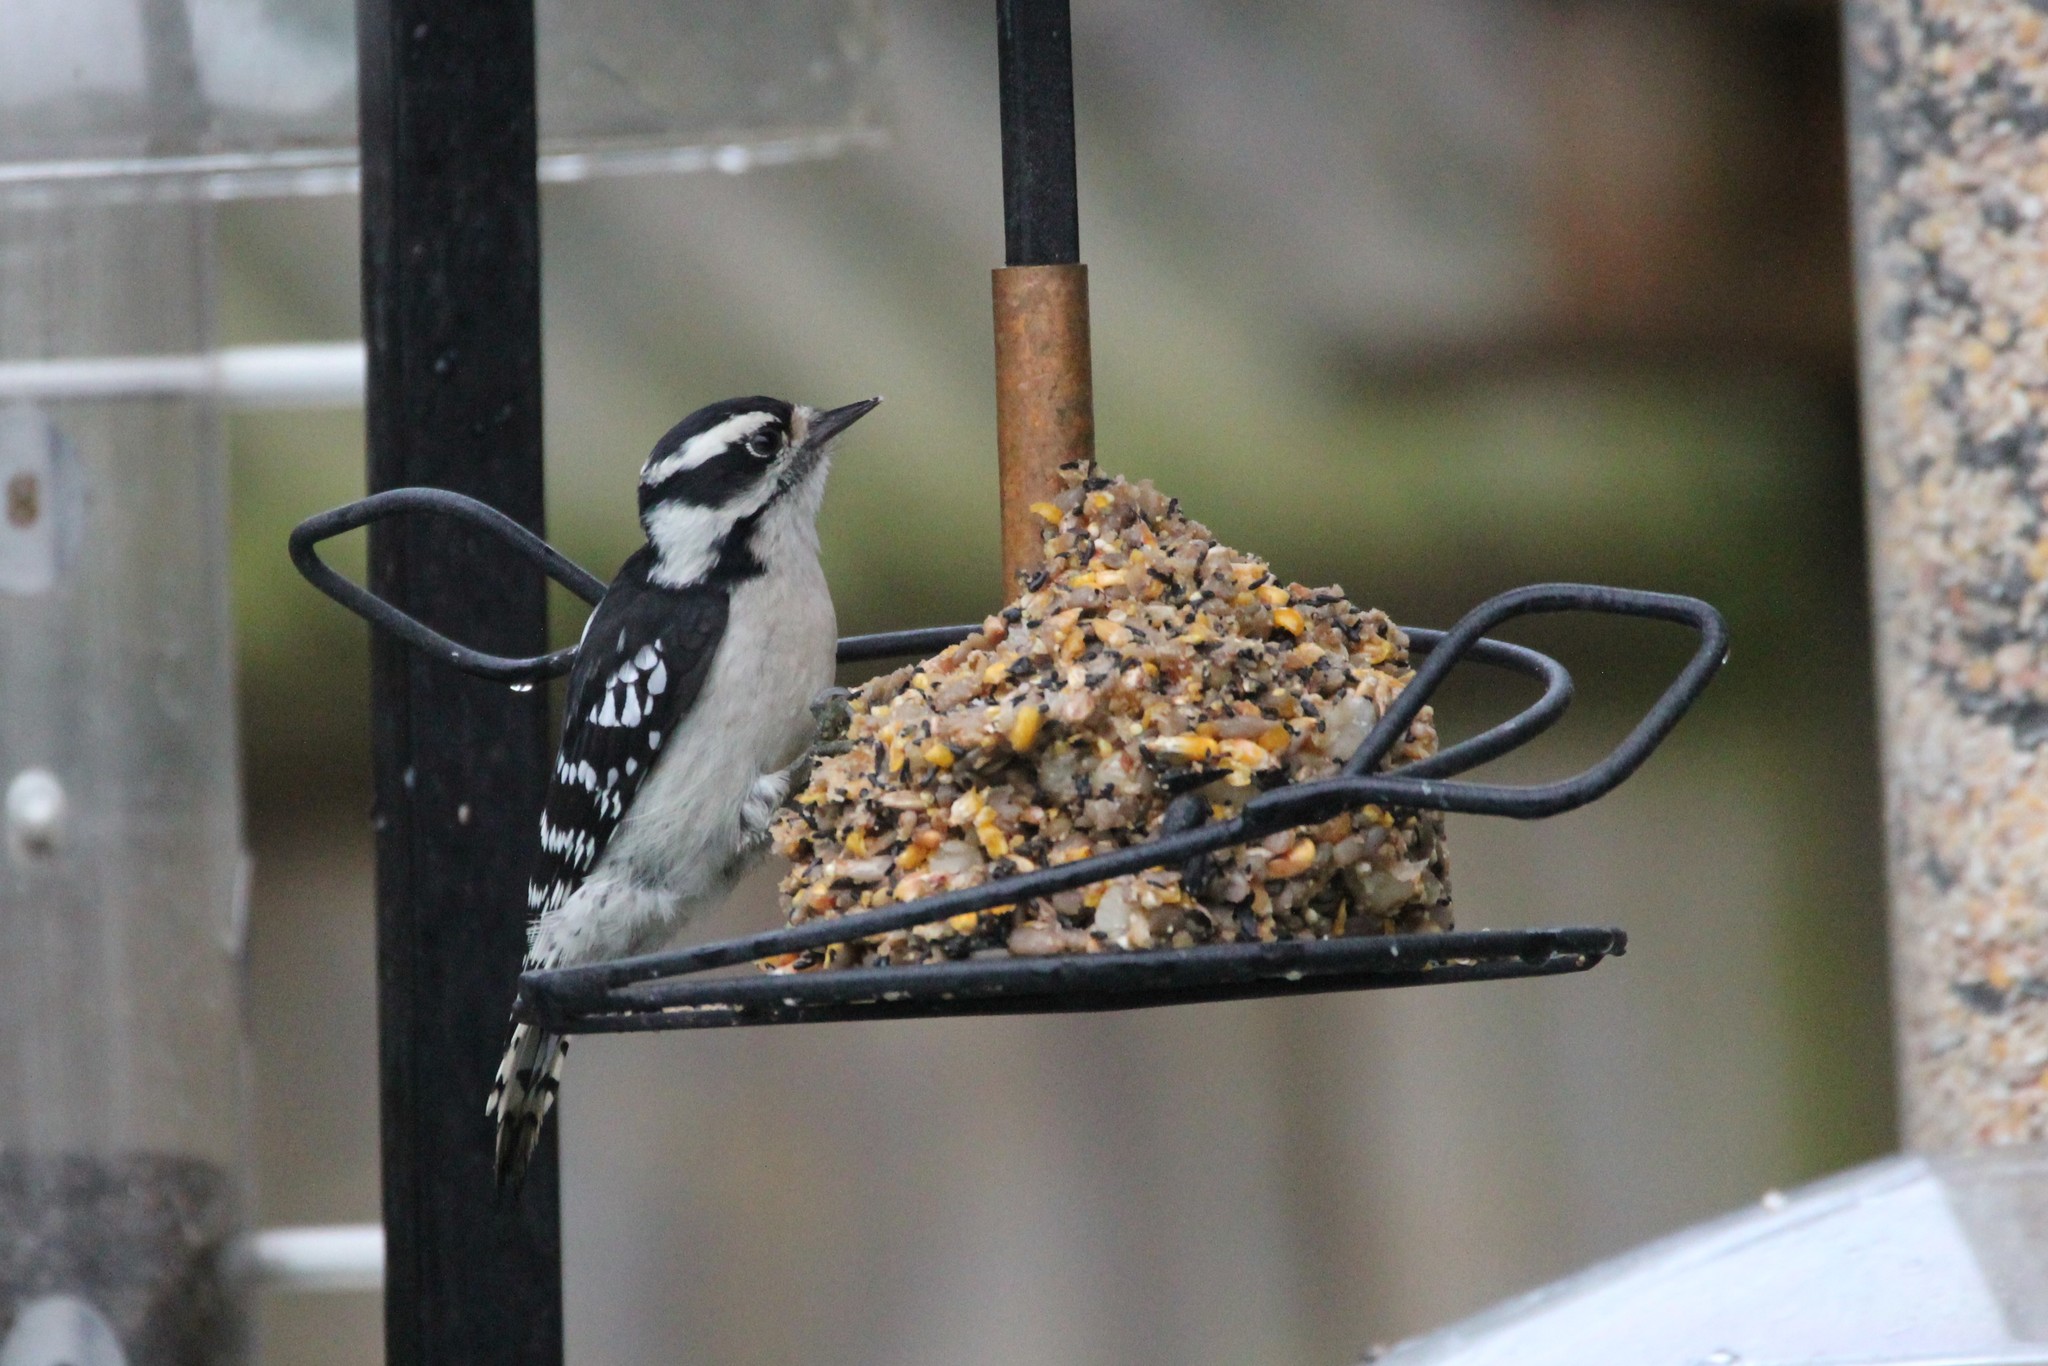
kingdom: Animalia
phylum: Chordata
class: Aves
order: Piciformes
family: Picidae
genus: Dryobates
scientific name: Dryobates pubescens
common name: Downy woodpecker
